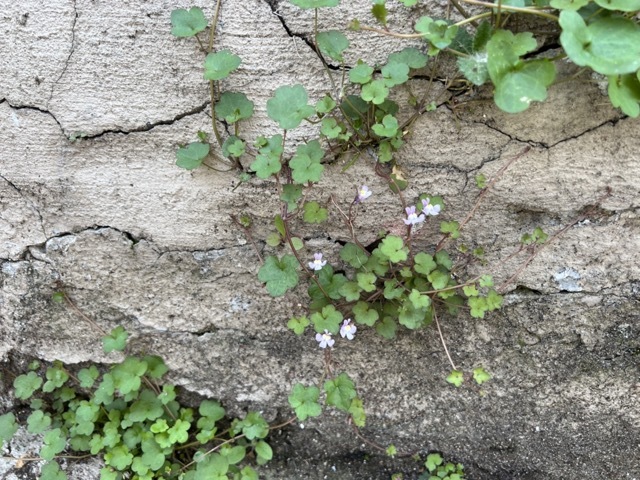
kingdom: Plantae
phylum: Tracheophyta
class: Magnoliopsida
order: Lamiales
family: Plantaginaceae
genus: Cymbalaria
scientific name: Cymbalaria muralis
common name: Ivy-leaved toadflax
